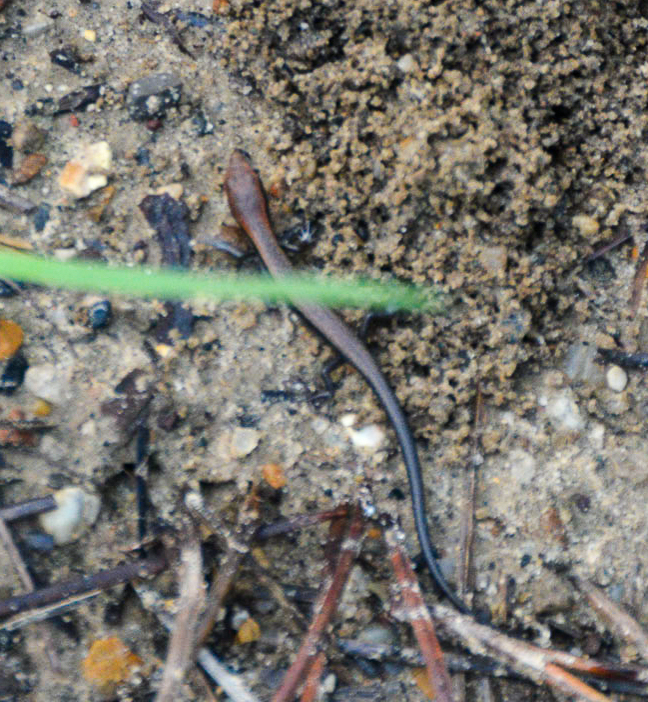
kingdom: Animalia
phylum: Chordata
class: Squamata
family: Scincidae
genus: Scincella
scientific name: Scincella lateralis
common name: Ground skink
